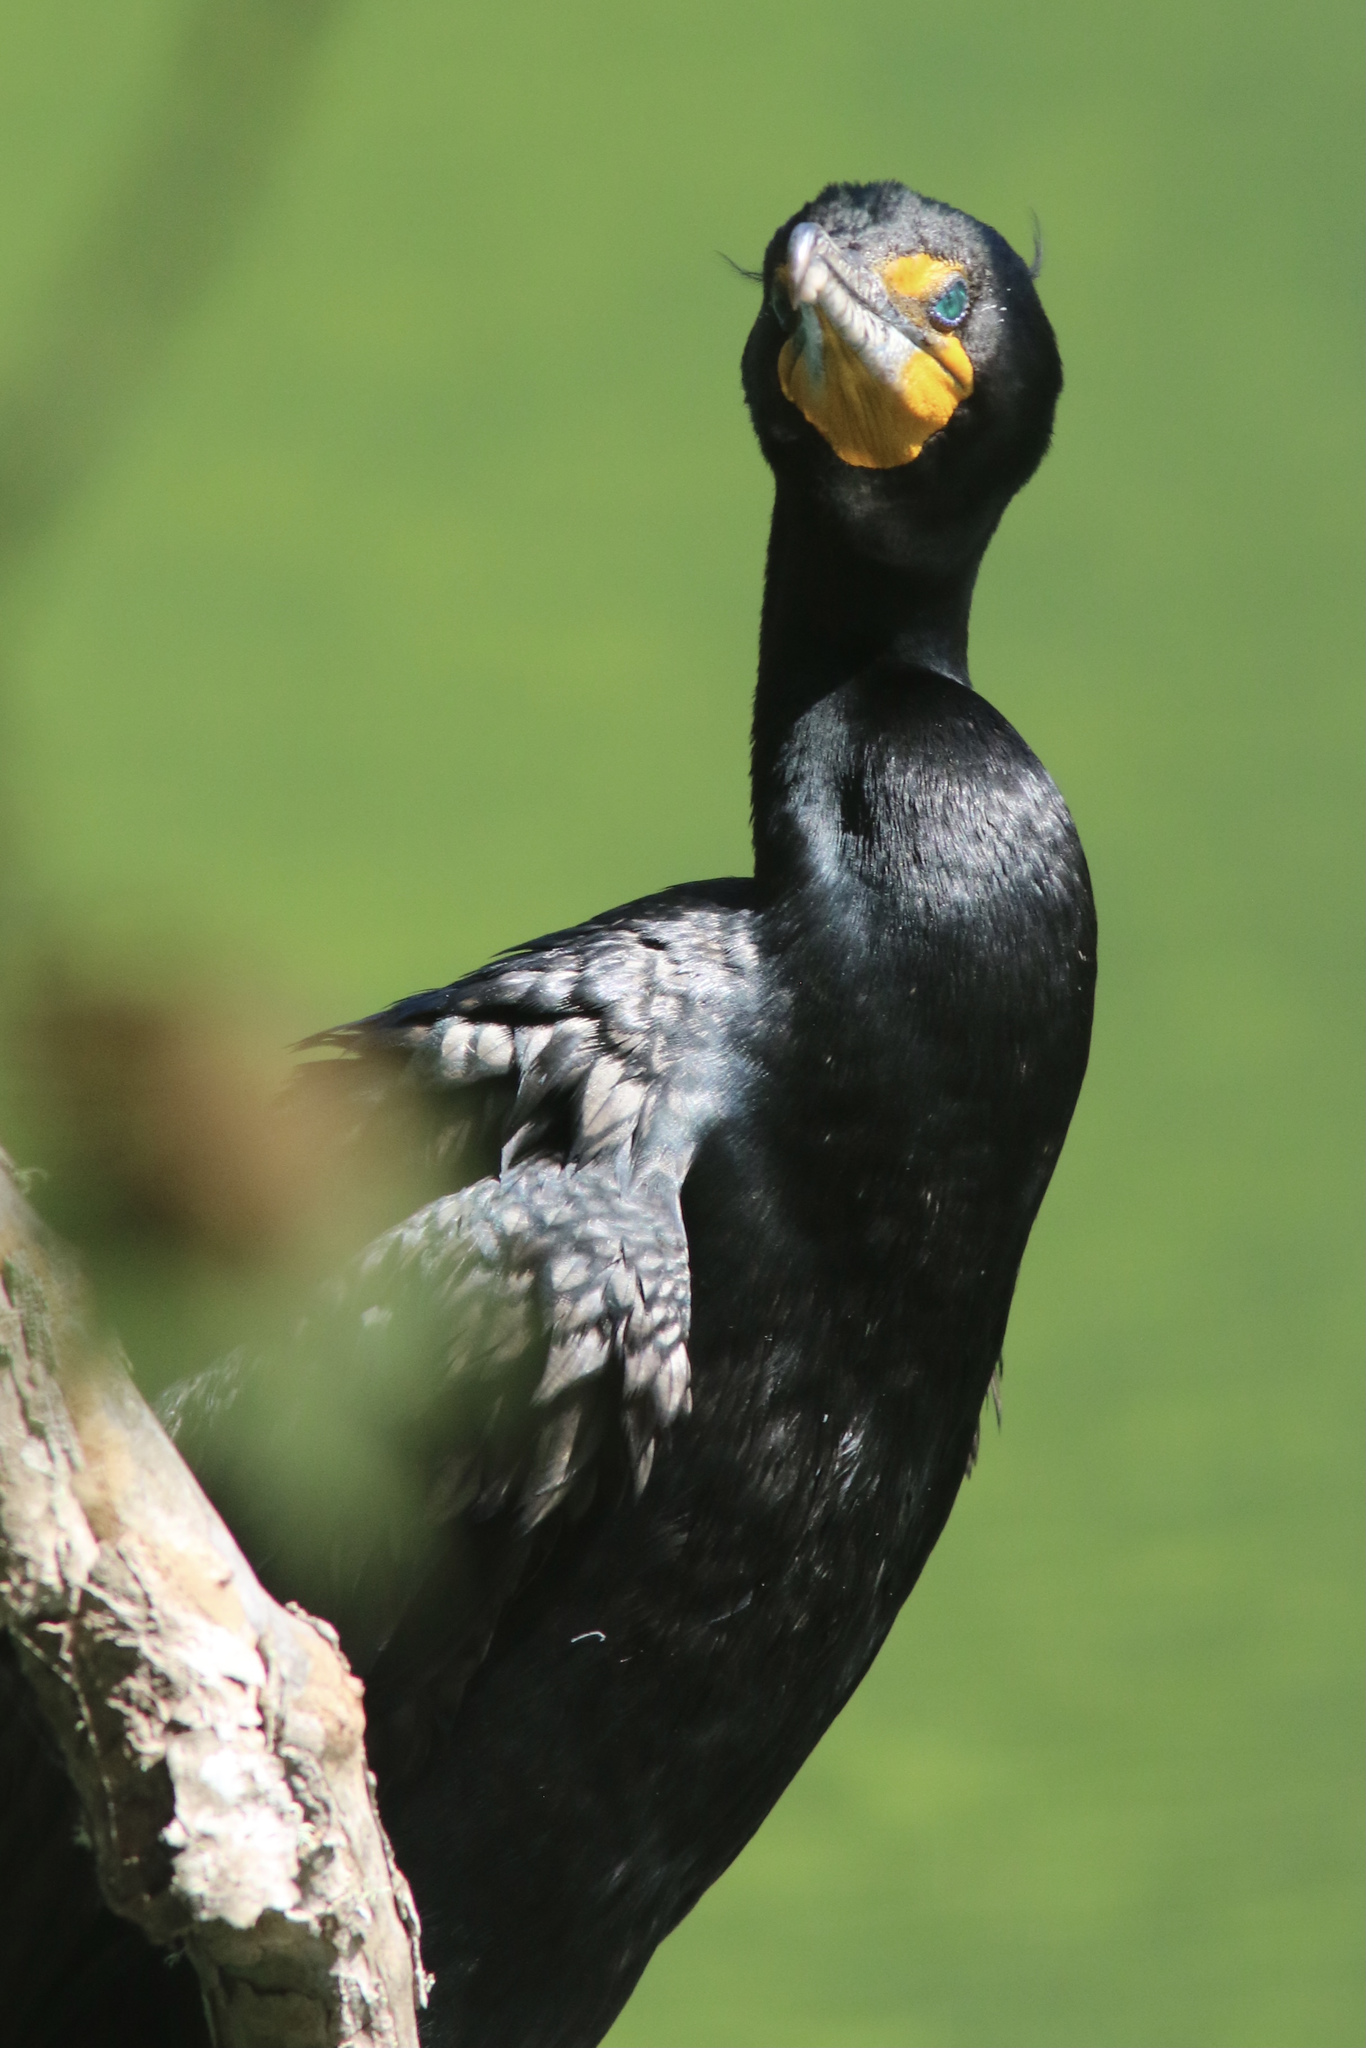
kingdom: Animalia
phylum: Chordata
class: Aves
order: Suliformes
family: Phalacrocoracidae
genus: Phalacrocorax
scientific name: Phalacrocorax auritus
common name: Double-crested cormorant
